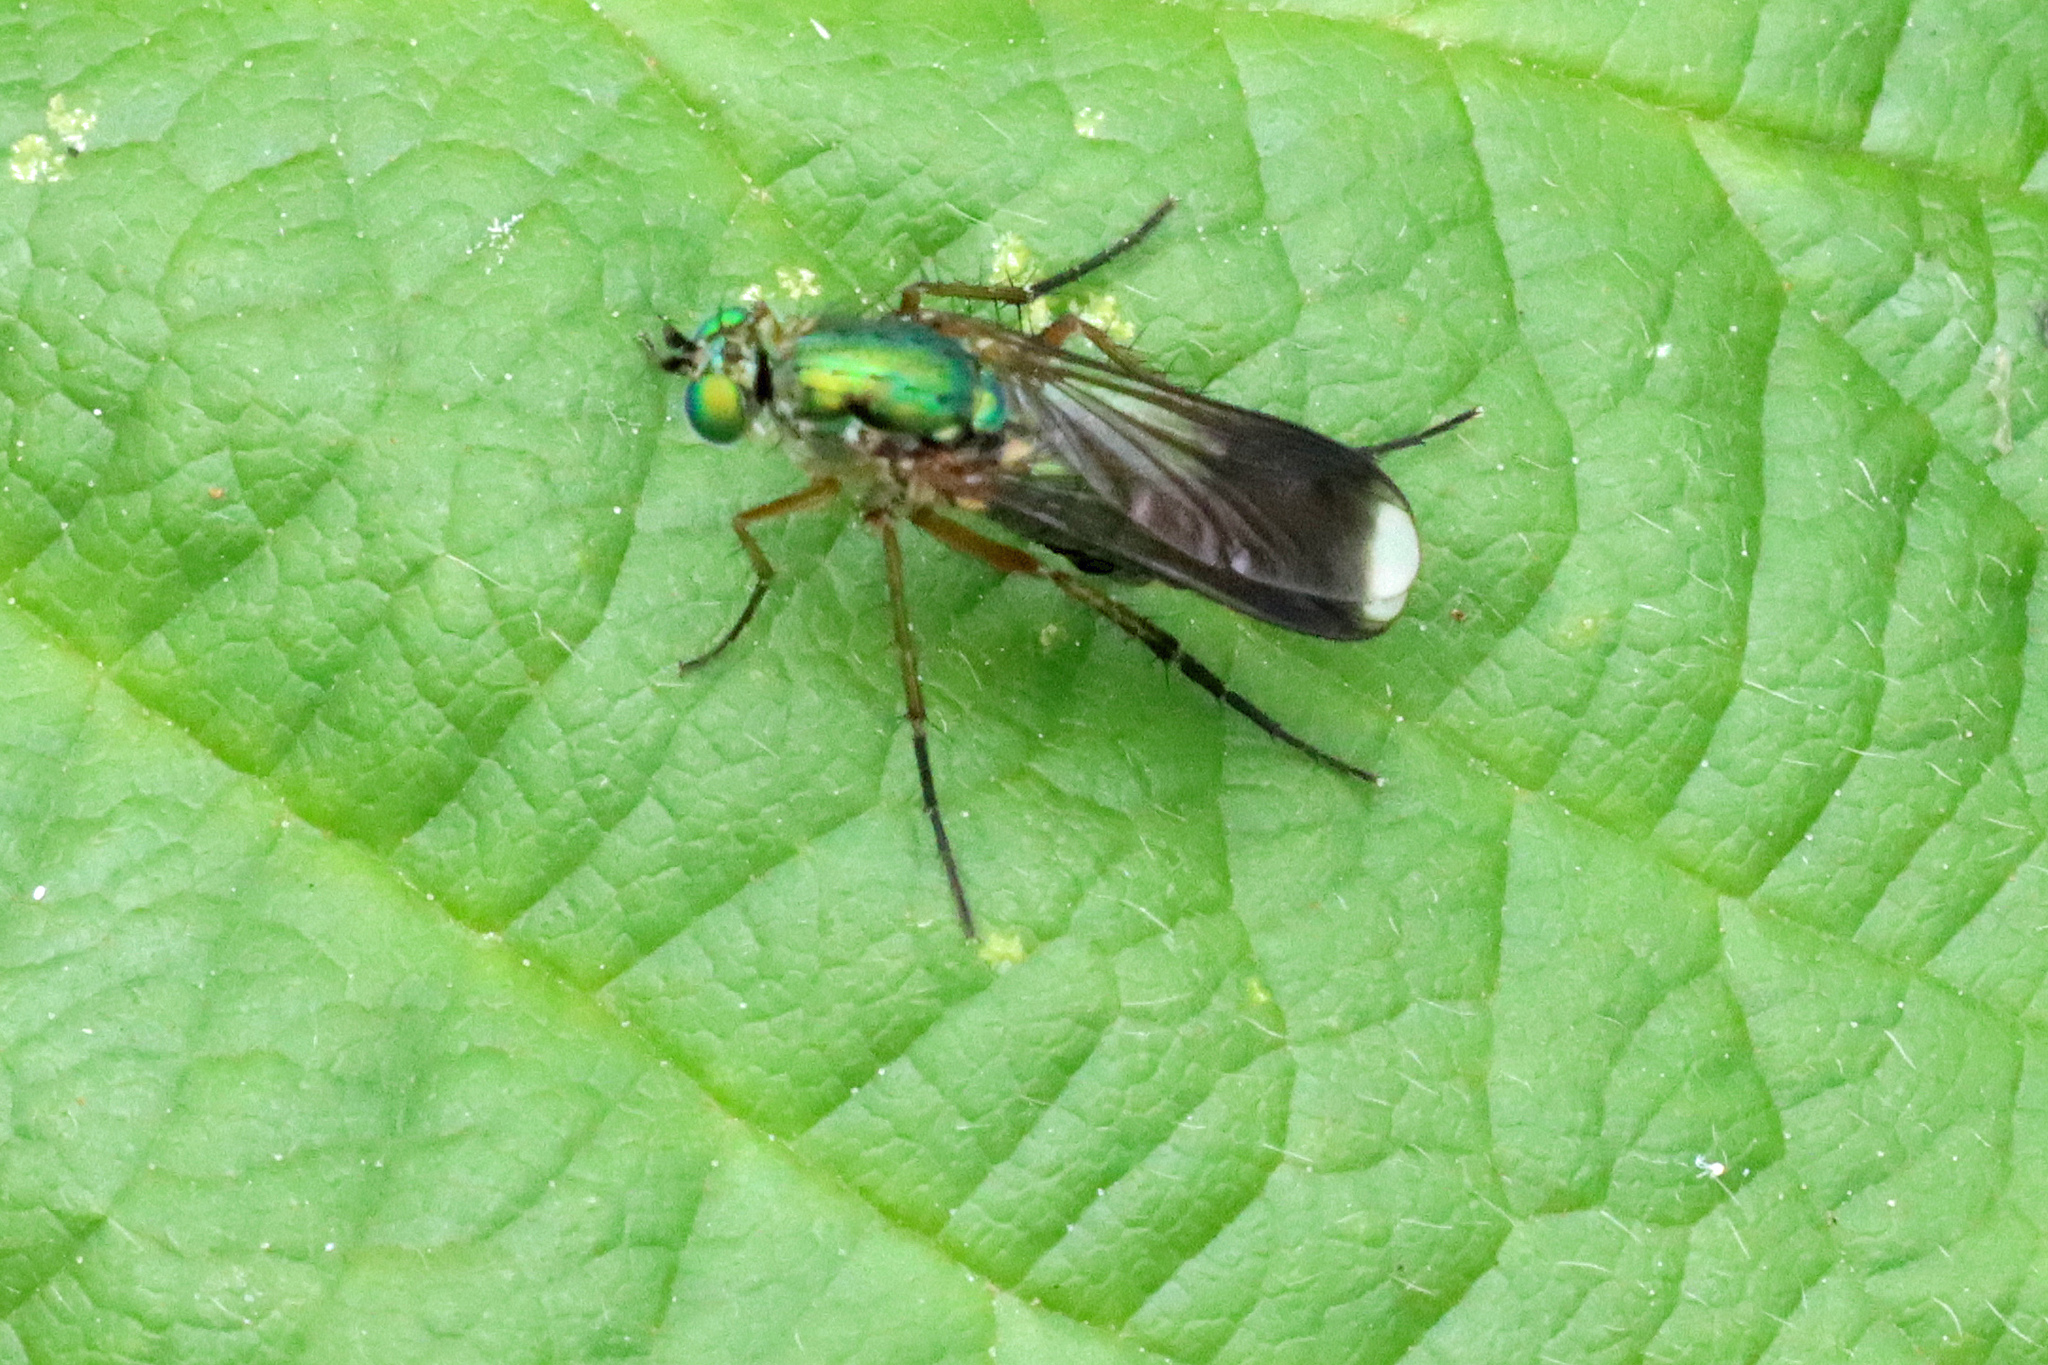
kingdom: Animalia
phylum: Arthropoda
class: Insecta
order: Diptera
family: Dolichopodidae
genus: Poecilobothrus
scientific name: Poecilobothrus nobilitatus
